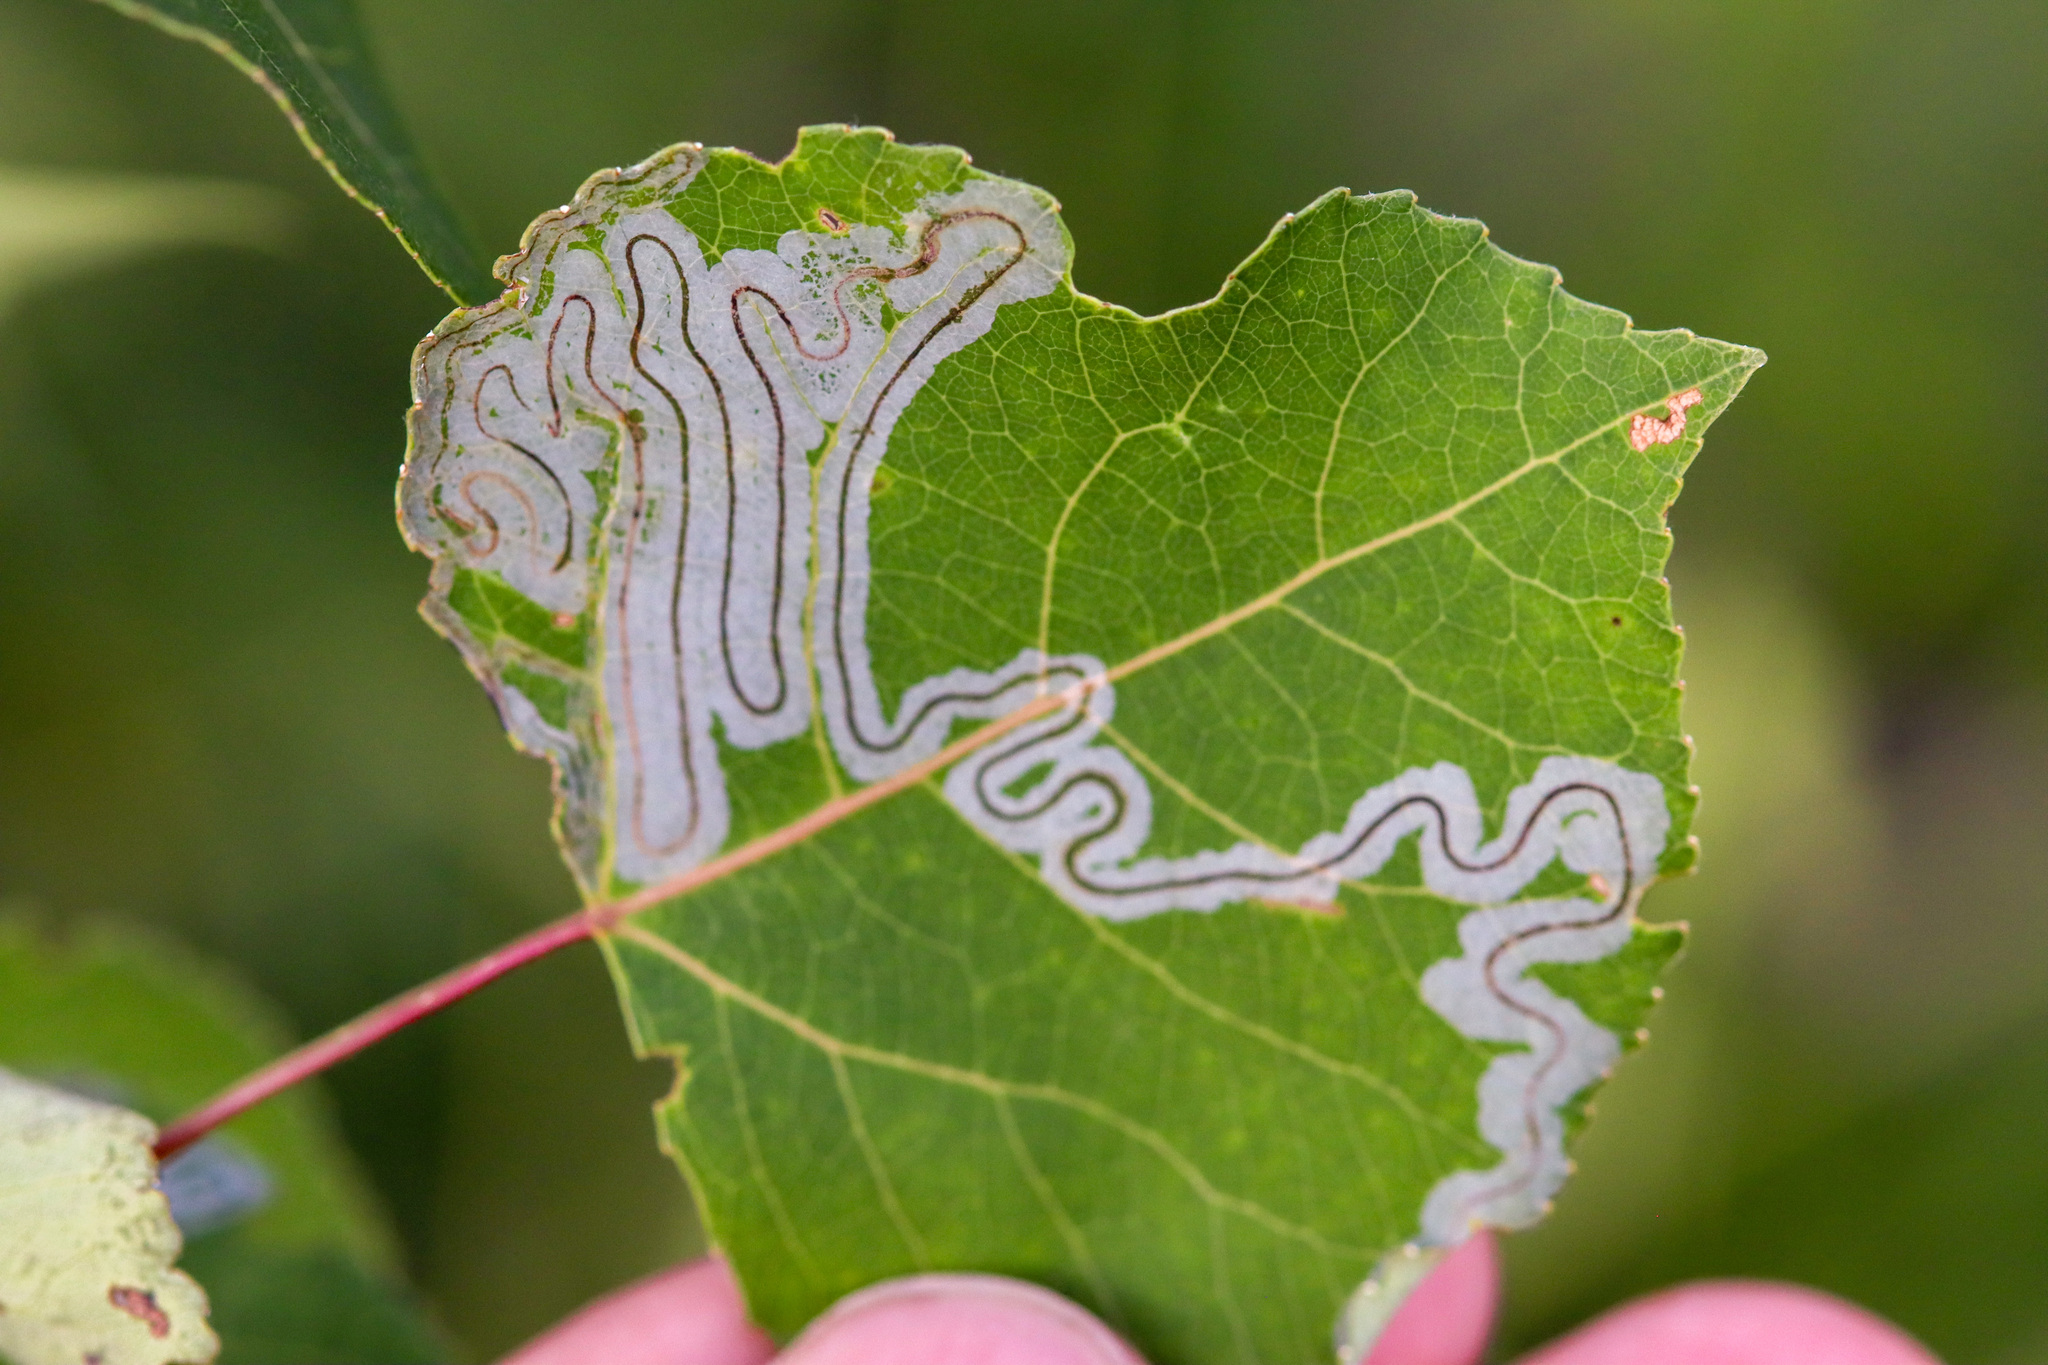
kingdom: Animalia
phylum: Arthropoda
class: Insecta
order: Lepidoptera
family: Gracillariidae
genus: Phyllocnistis
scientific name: Phyllocnistis populiella
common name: Aspen serpentine leafminer moth
